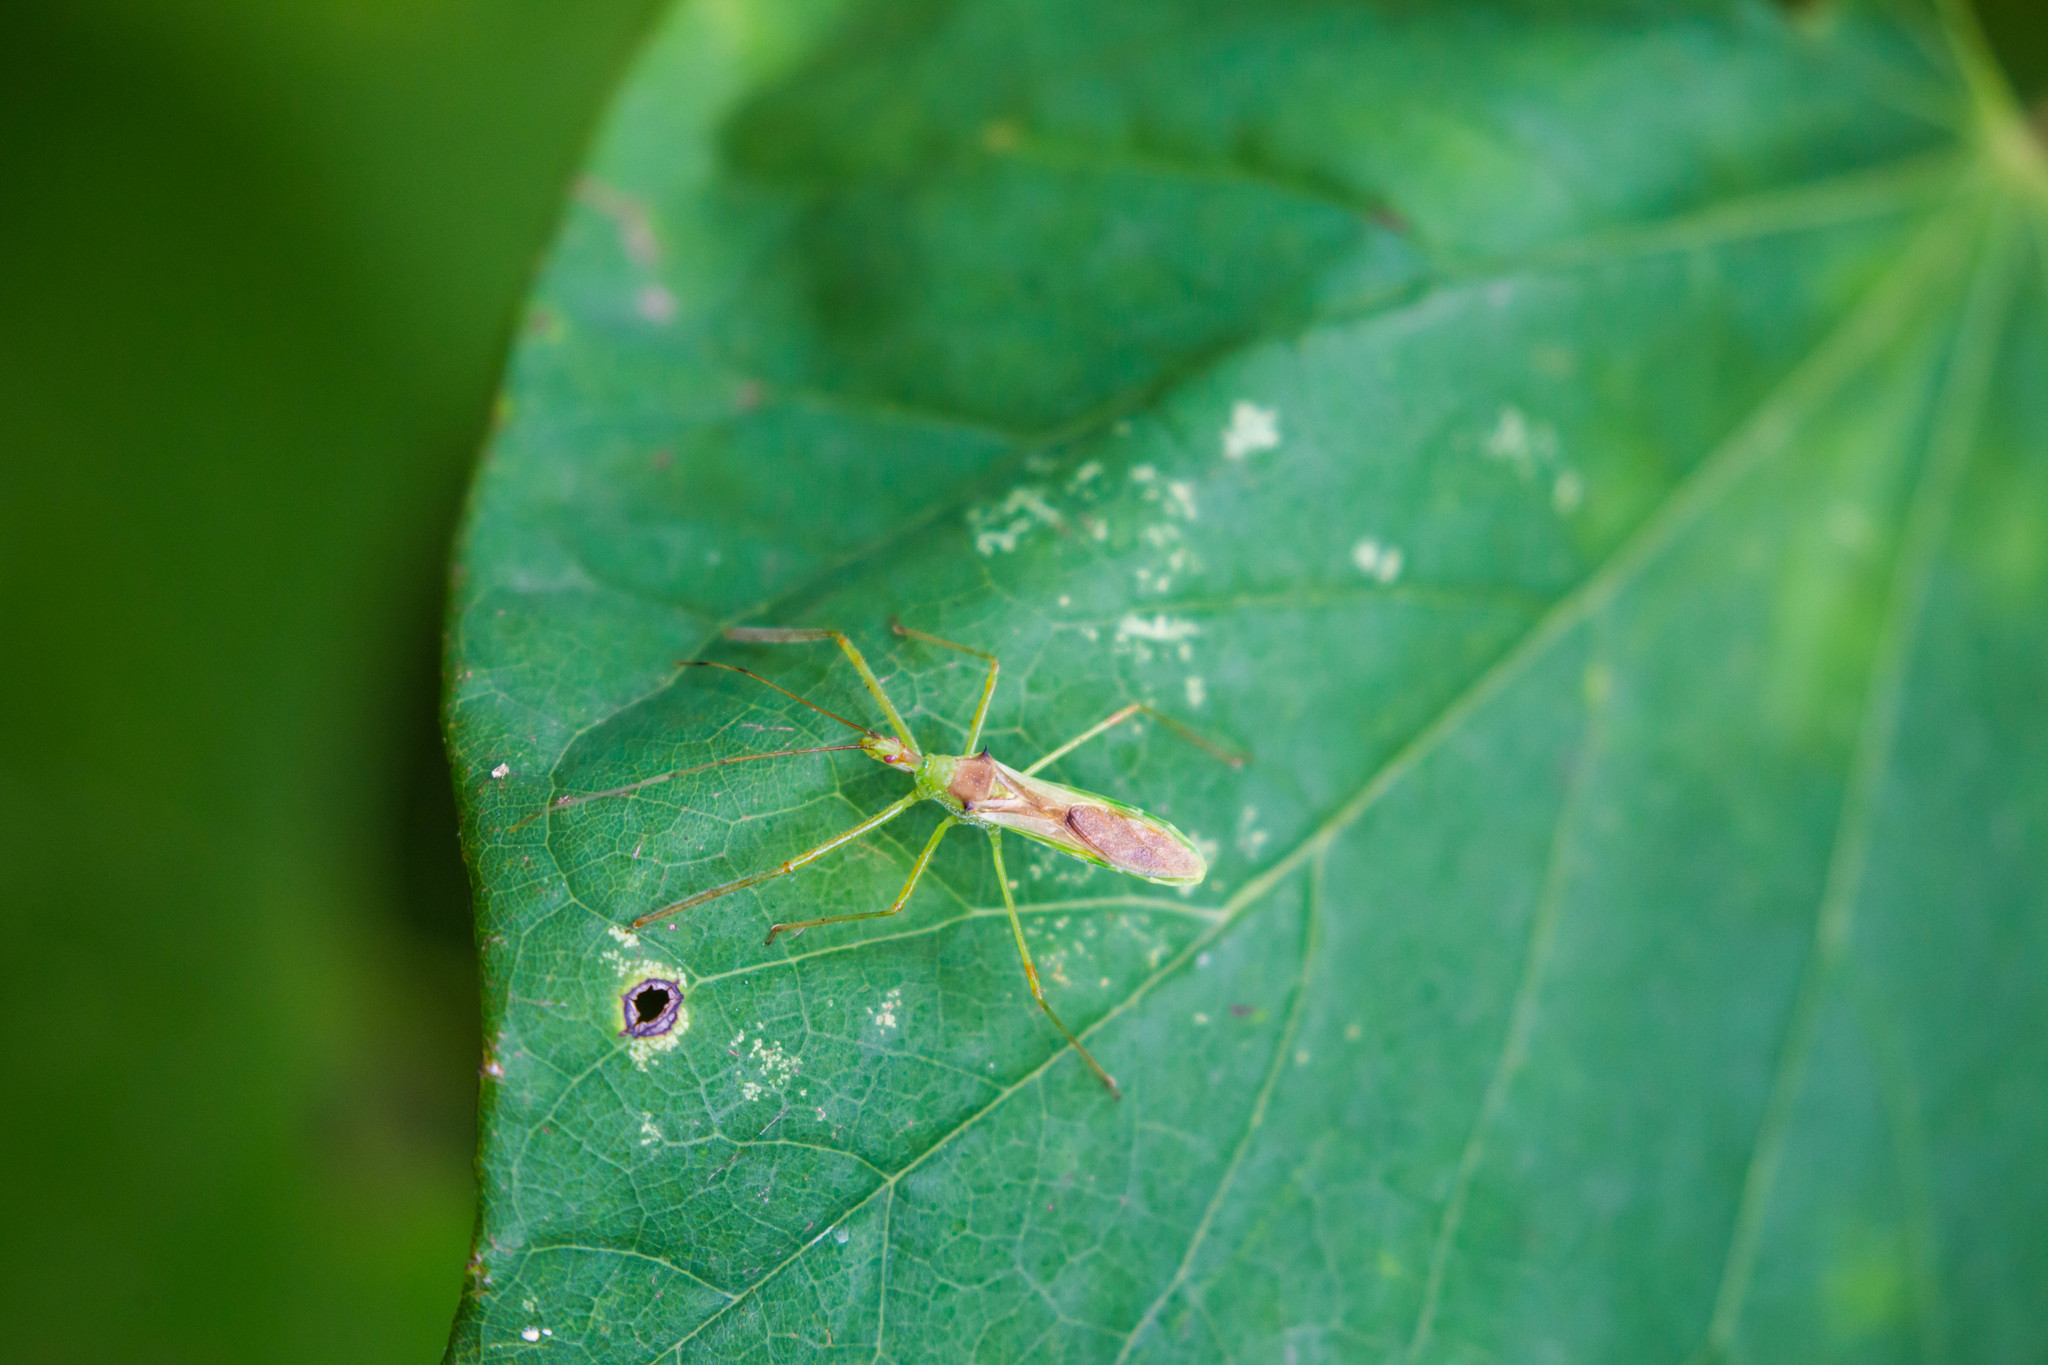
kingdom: Animalia
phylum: Arthropoda
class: Insecta
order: Hemiptera
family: Reduviidae
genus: Zelus
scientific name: Zelus luridus
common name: Pale green assassin bug
